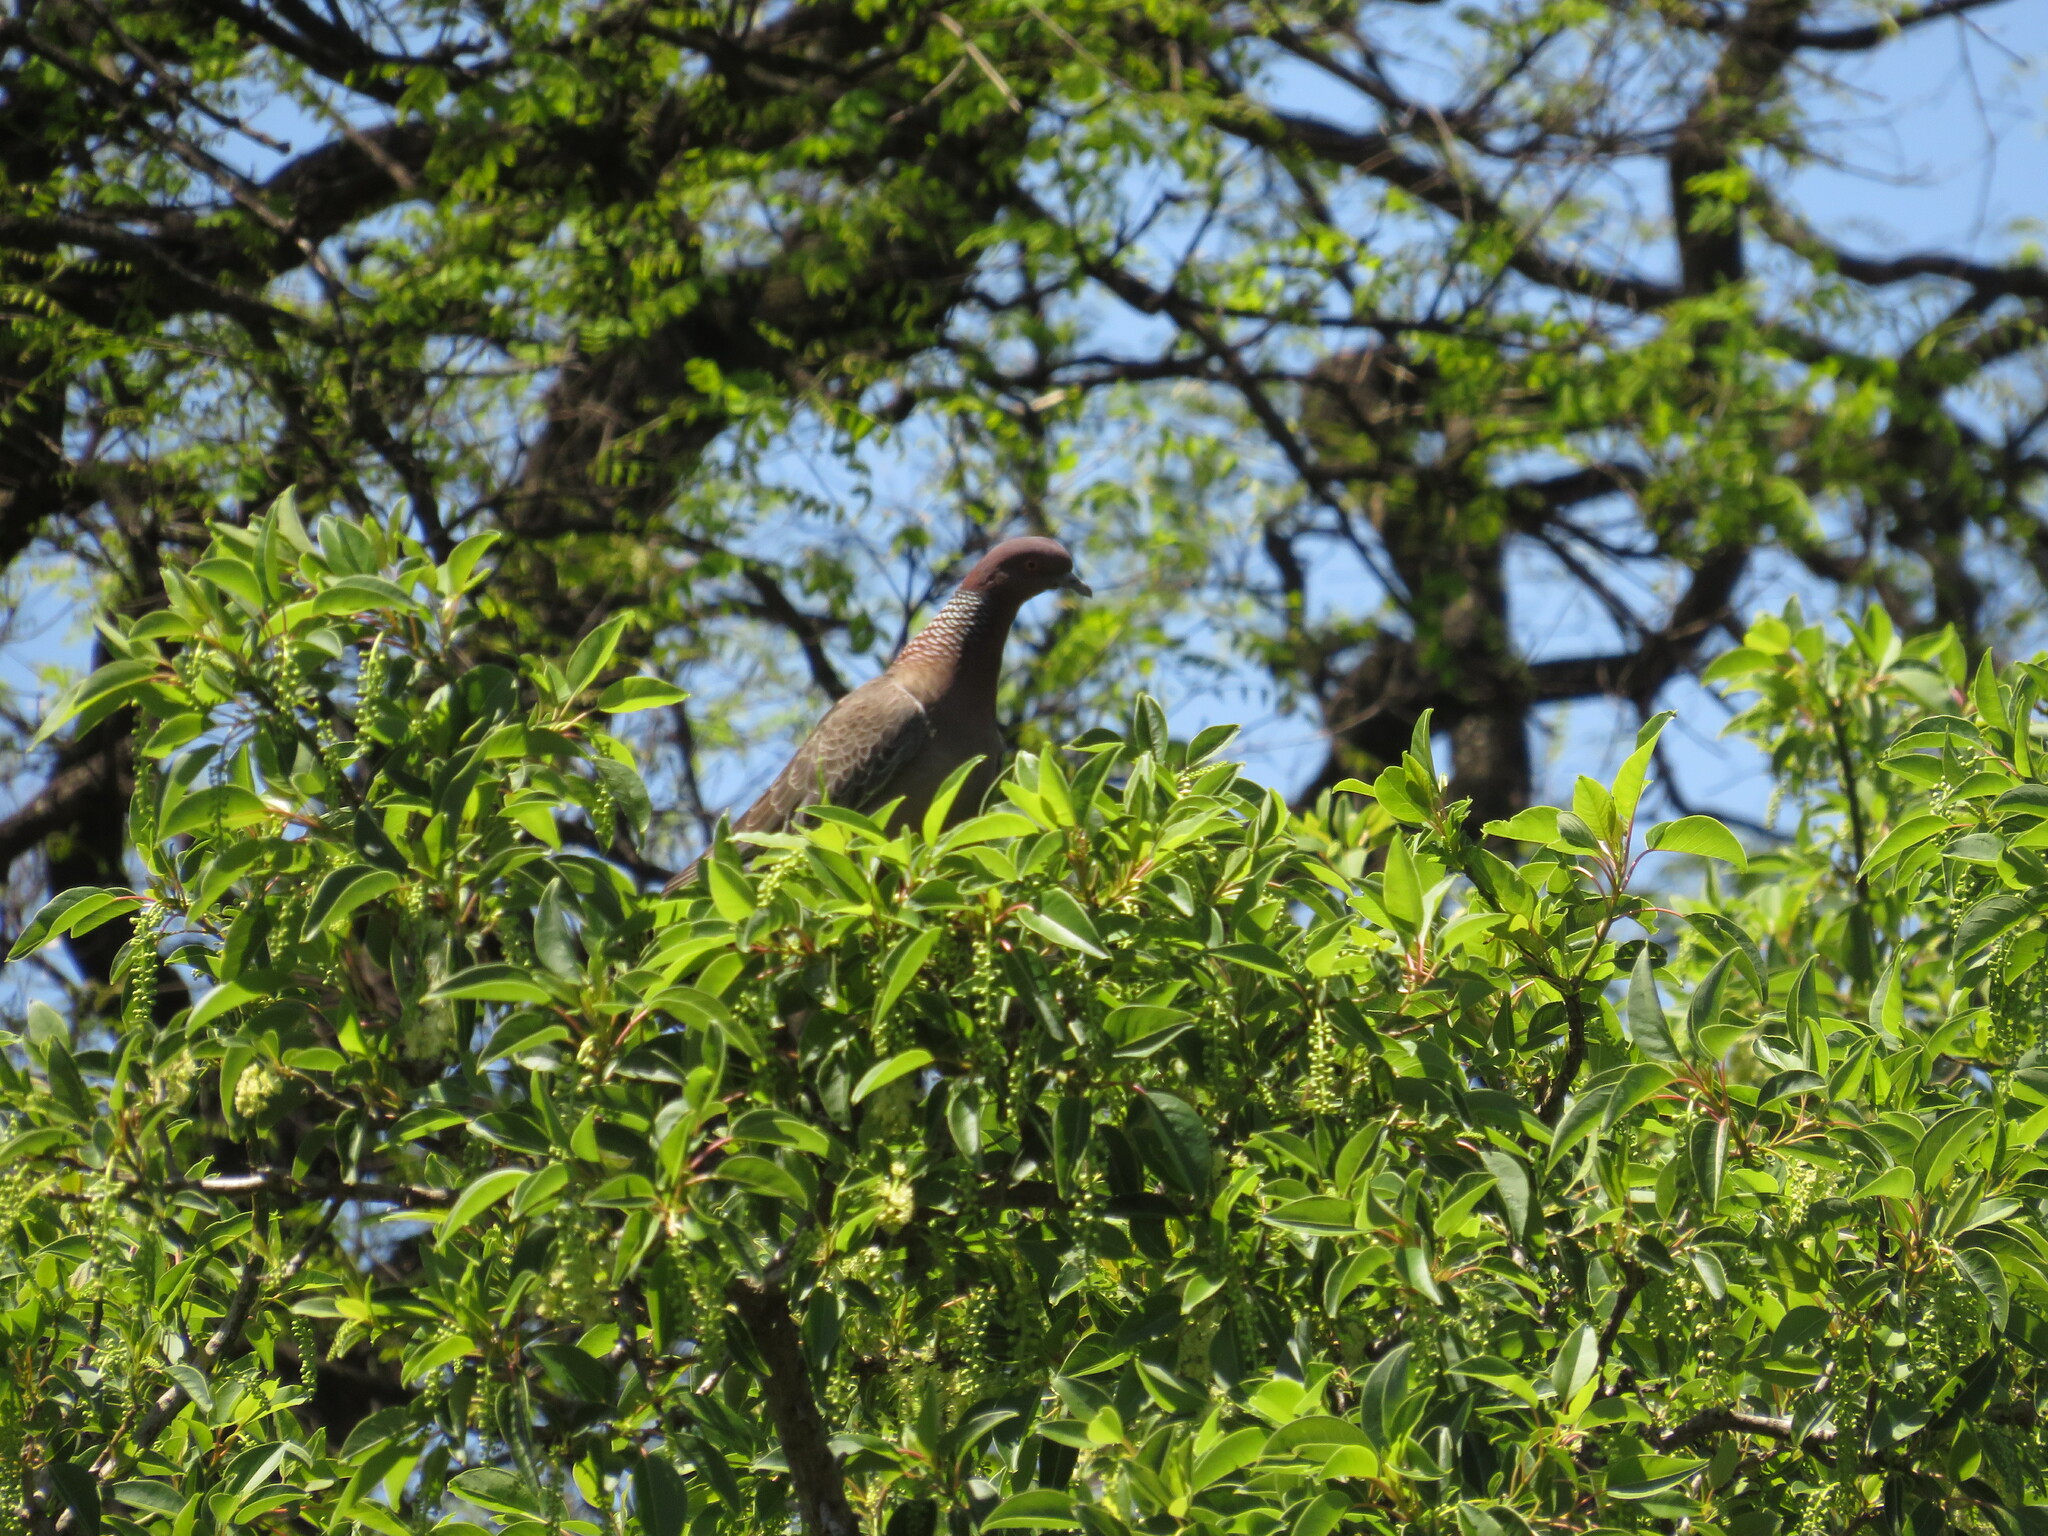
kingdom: Animalia
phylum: Chordata
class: Aves
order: Columbiformes
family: Columbidae
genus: Patagioenas
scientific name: Patagioenas picazuro
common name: Picazuro pigeon
